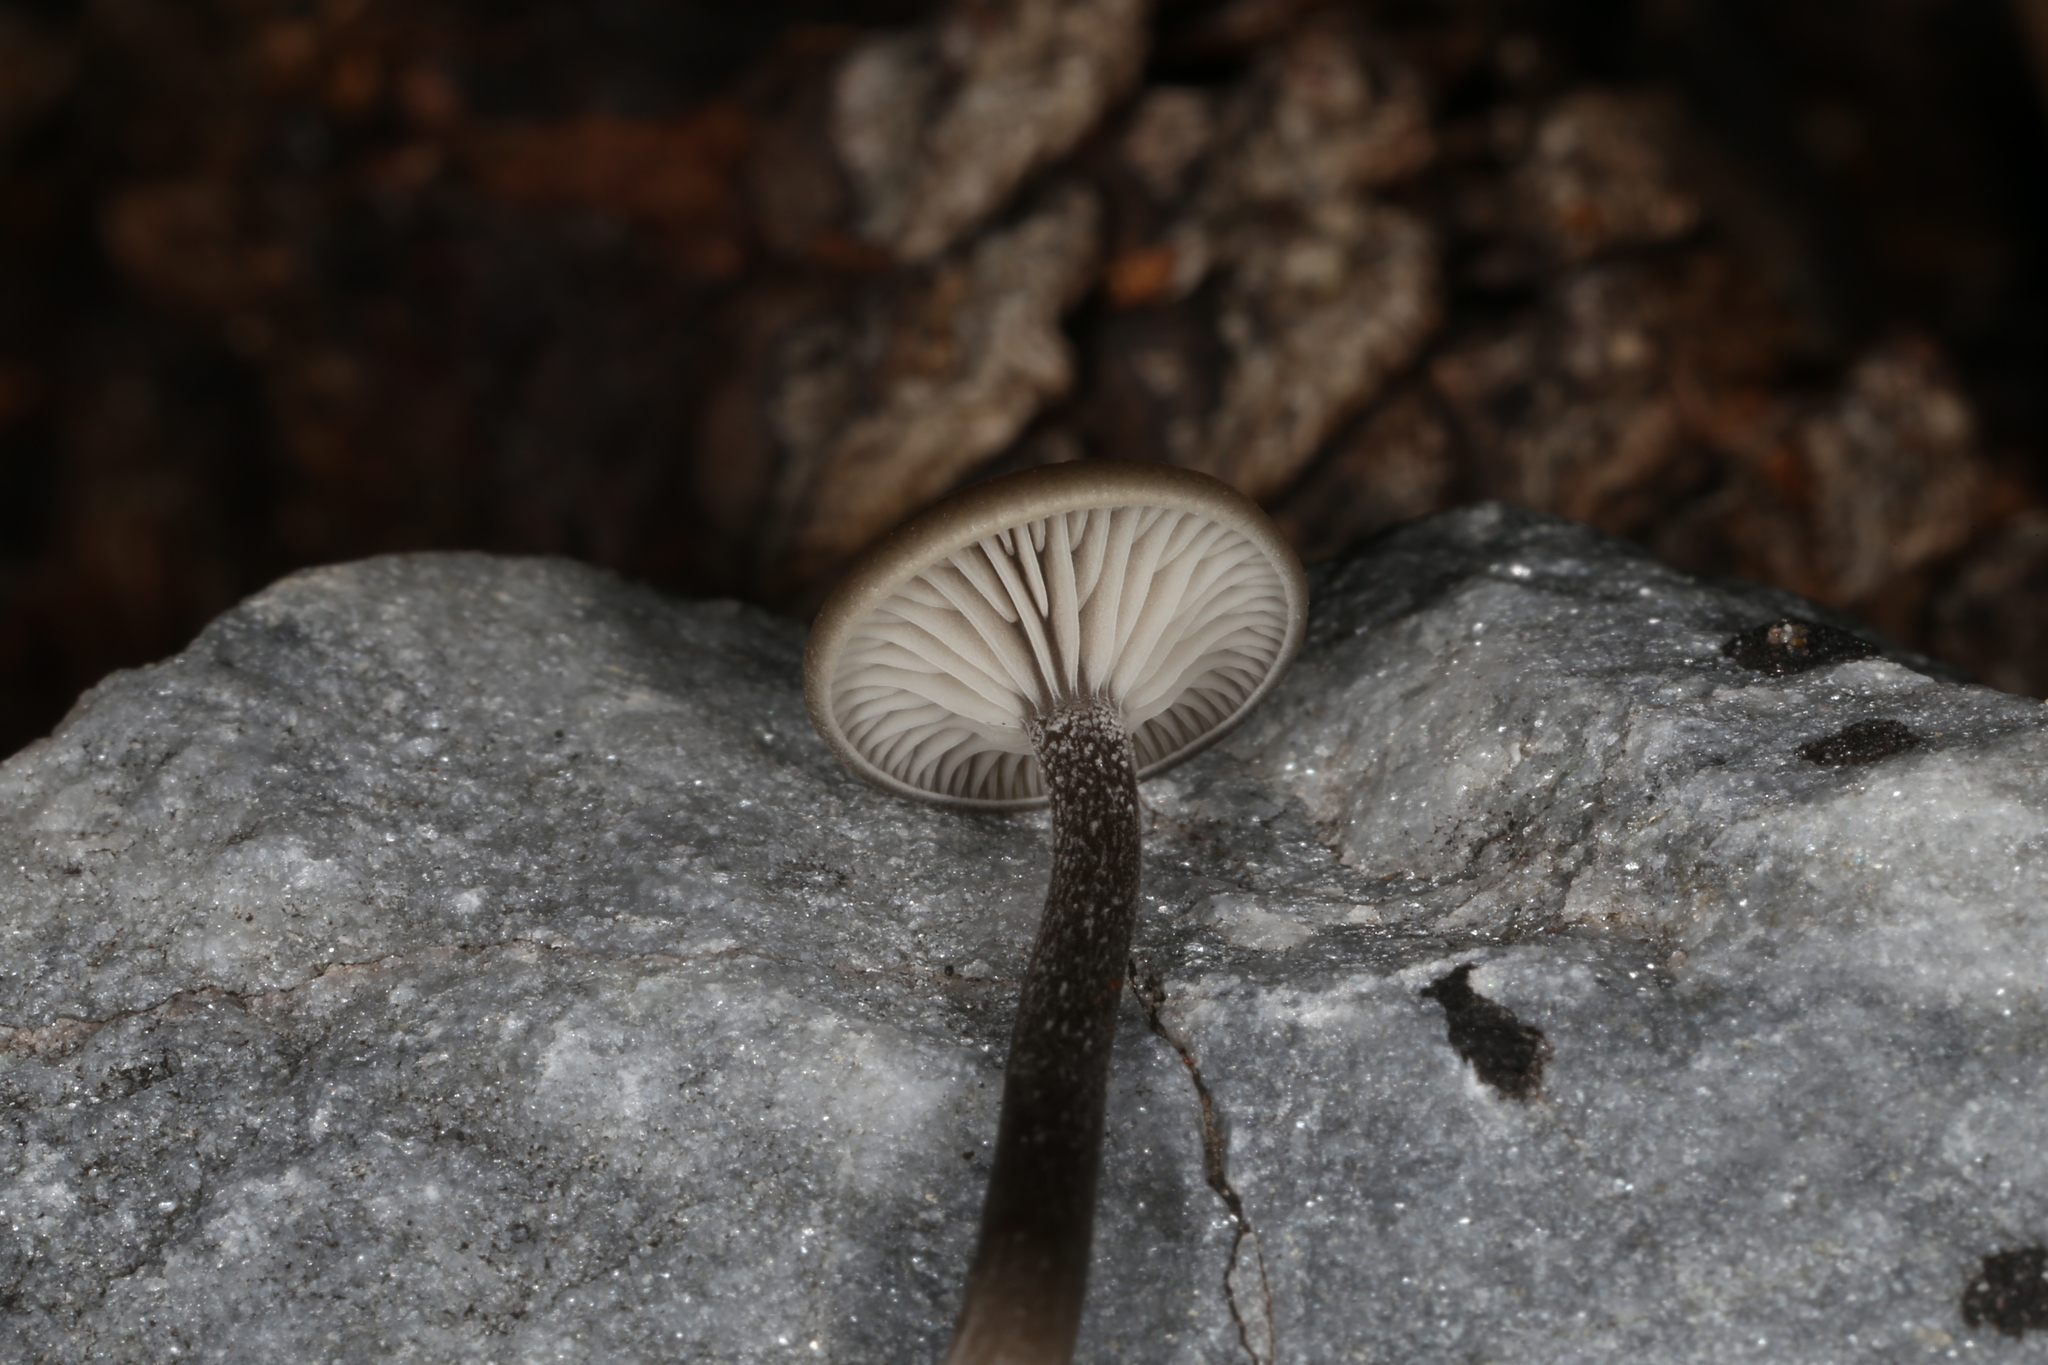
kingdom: Fungi
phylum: Basidiomycota
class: Agaricomycetes
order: Agaricales
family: Tricholomataceae
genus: Myxomphalia
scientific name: Myxomphalia maura
